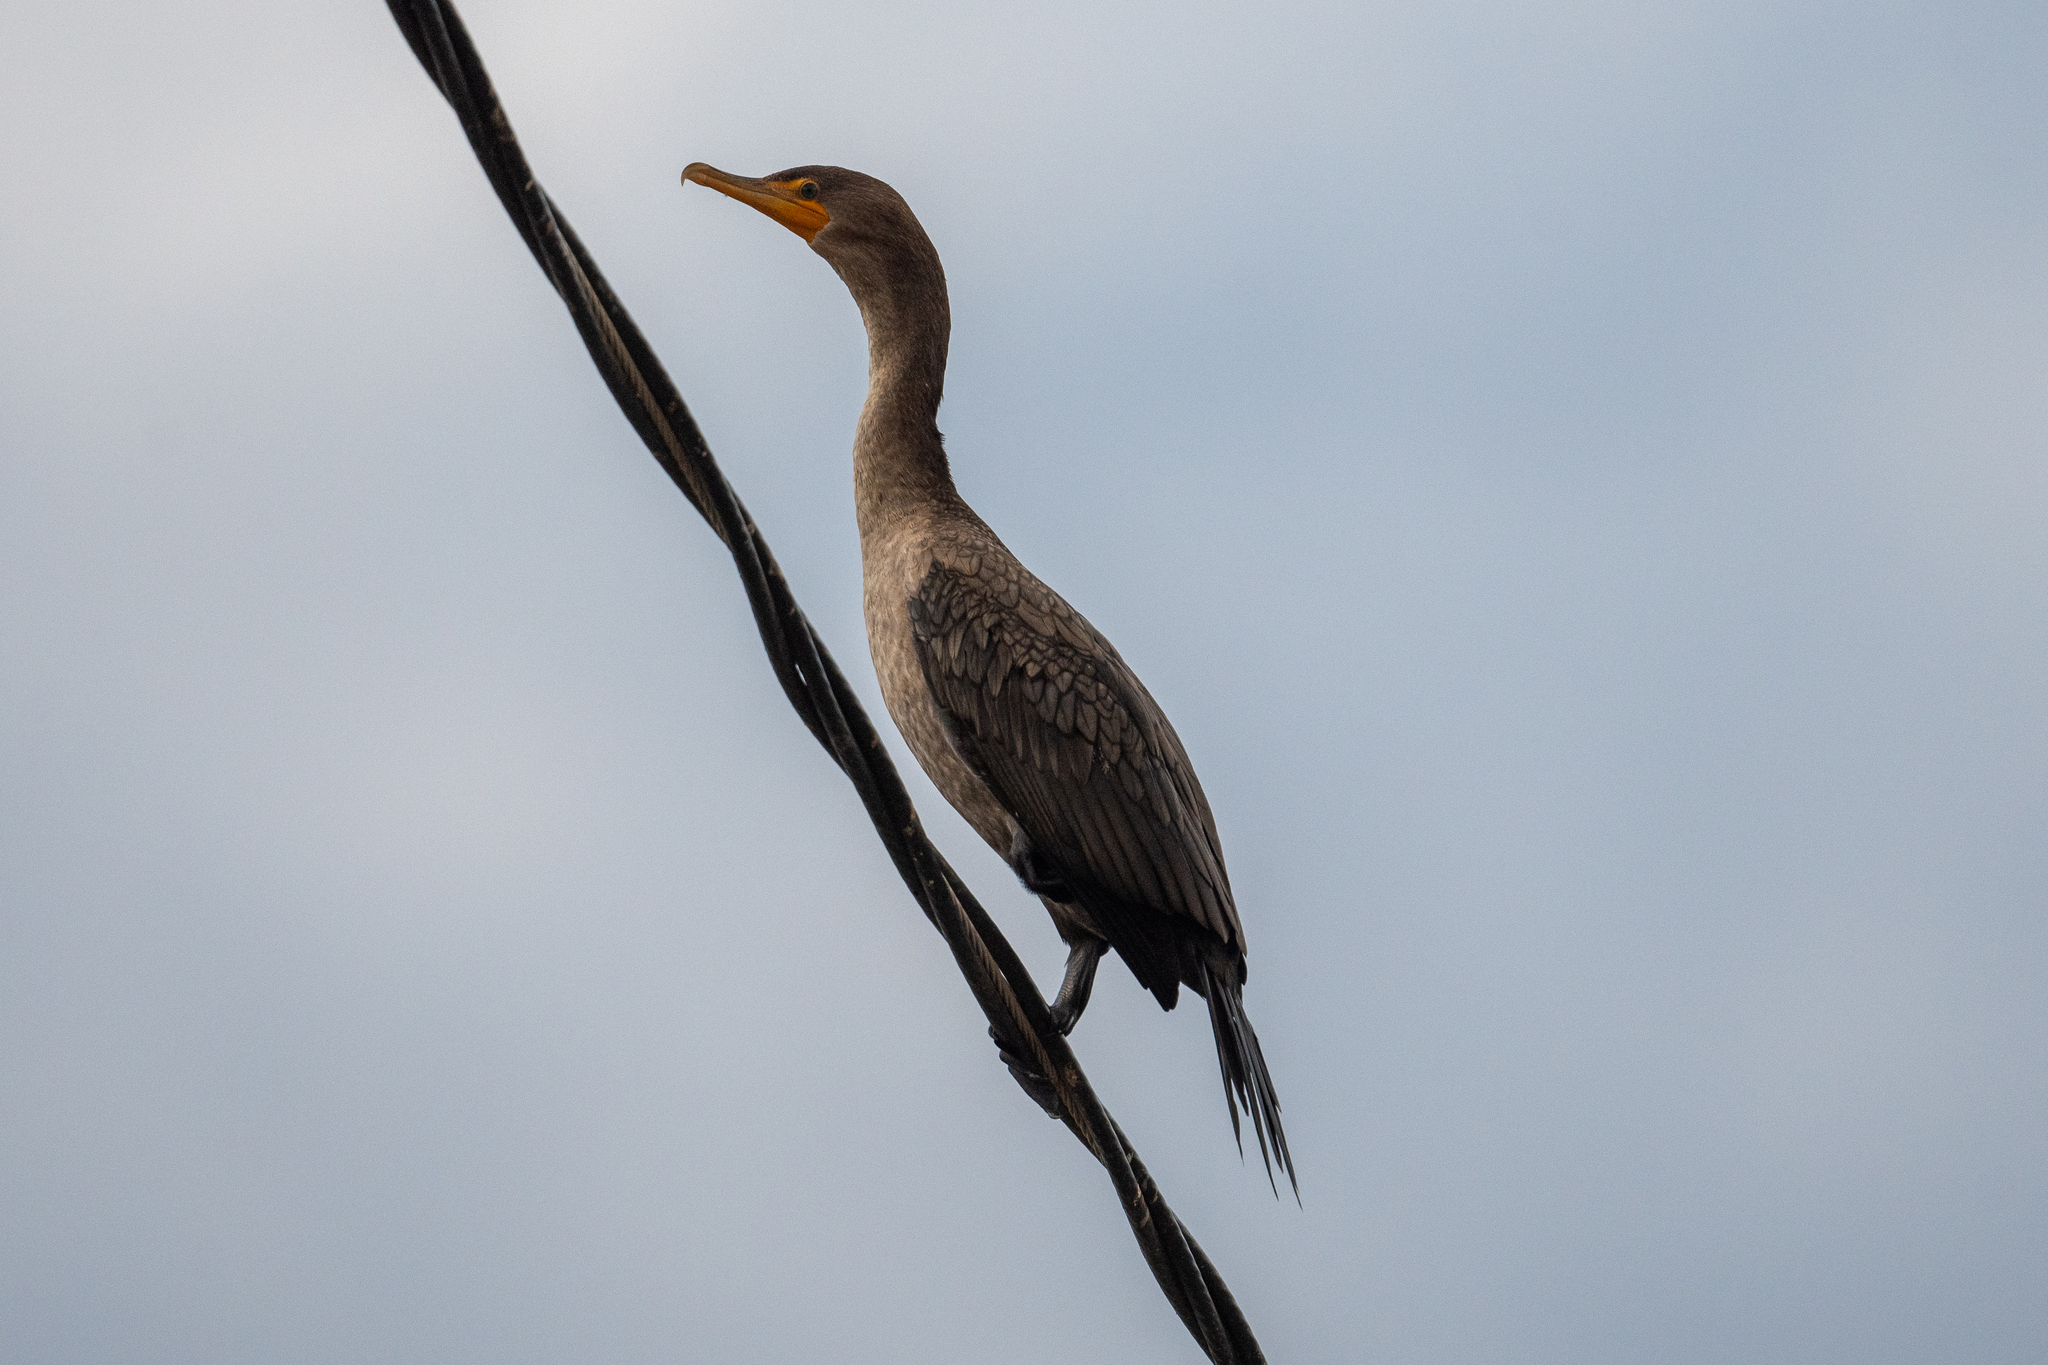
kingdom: Animalia
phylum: Chordata
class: Aves
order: Suliformes
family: Phalacrocoracidae
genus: Phalacrocorax
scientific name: Phalacrocorax auritus
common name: Double-crested cormorant
